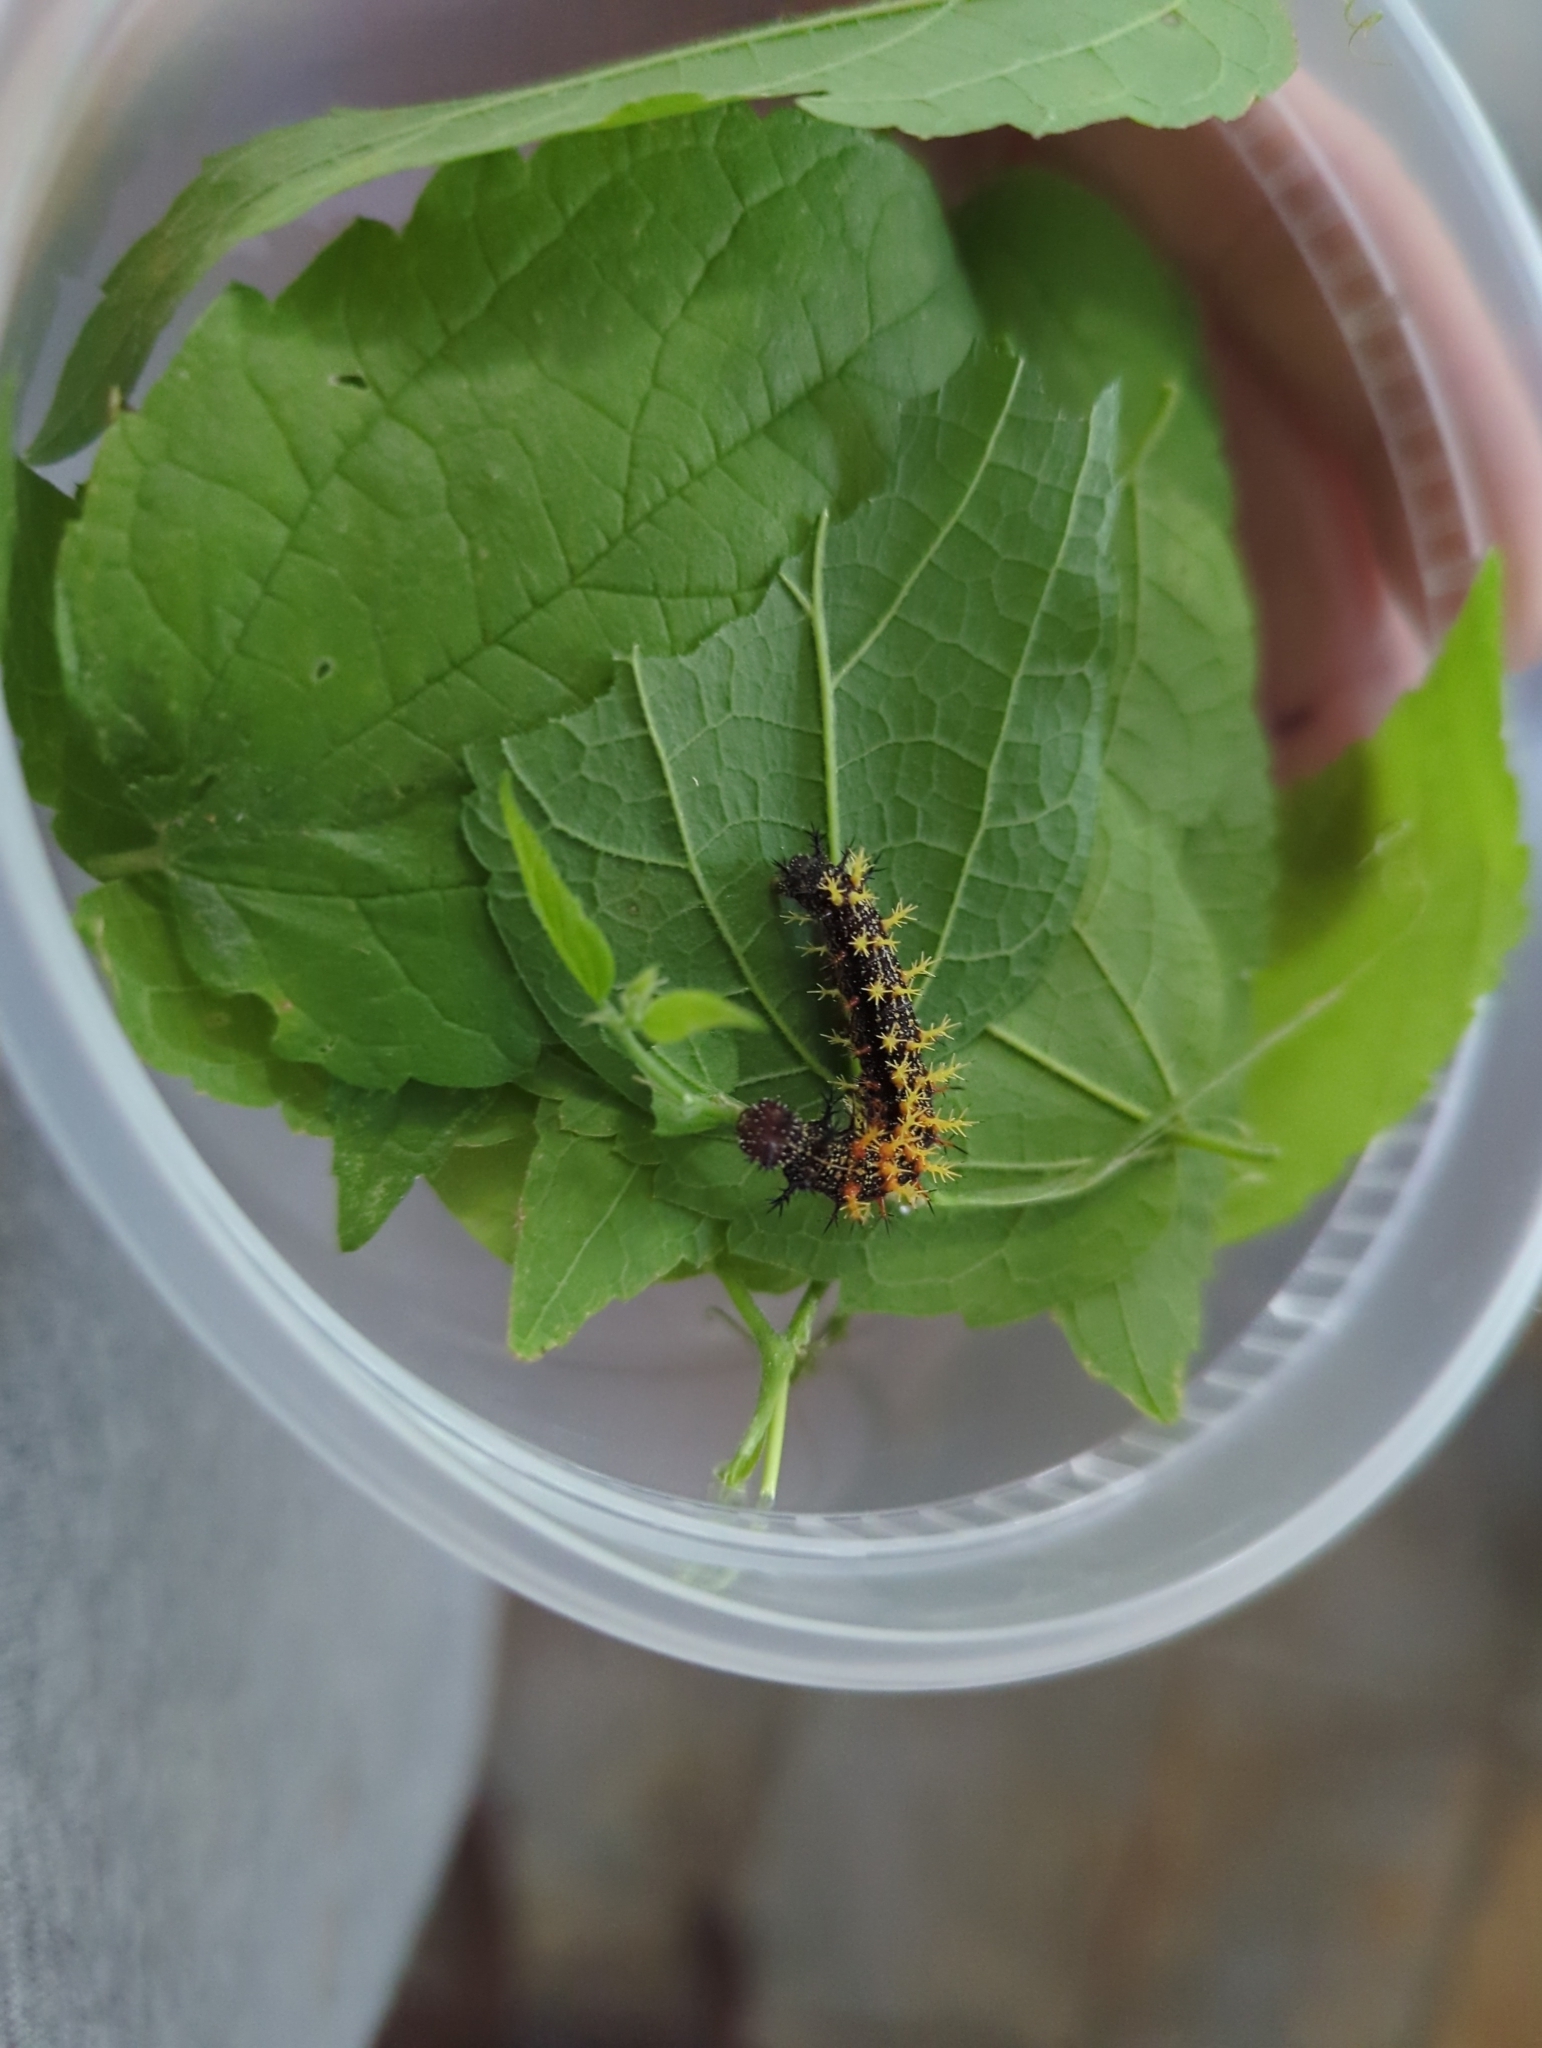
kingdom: Animalia
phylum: Arthropoda
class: Insecta
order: Lepidoptera
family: Nymphalidae
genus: Polygonia
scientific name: Polygonia interrogationis
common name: Question mark
